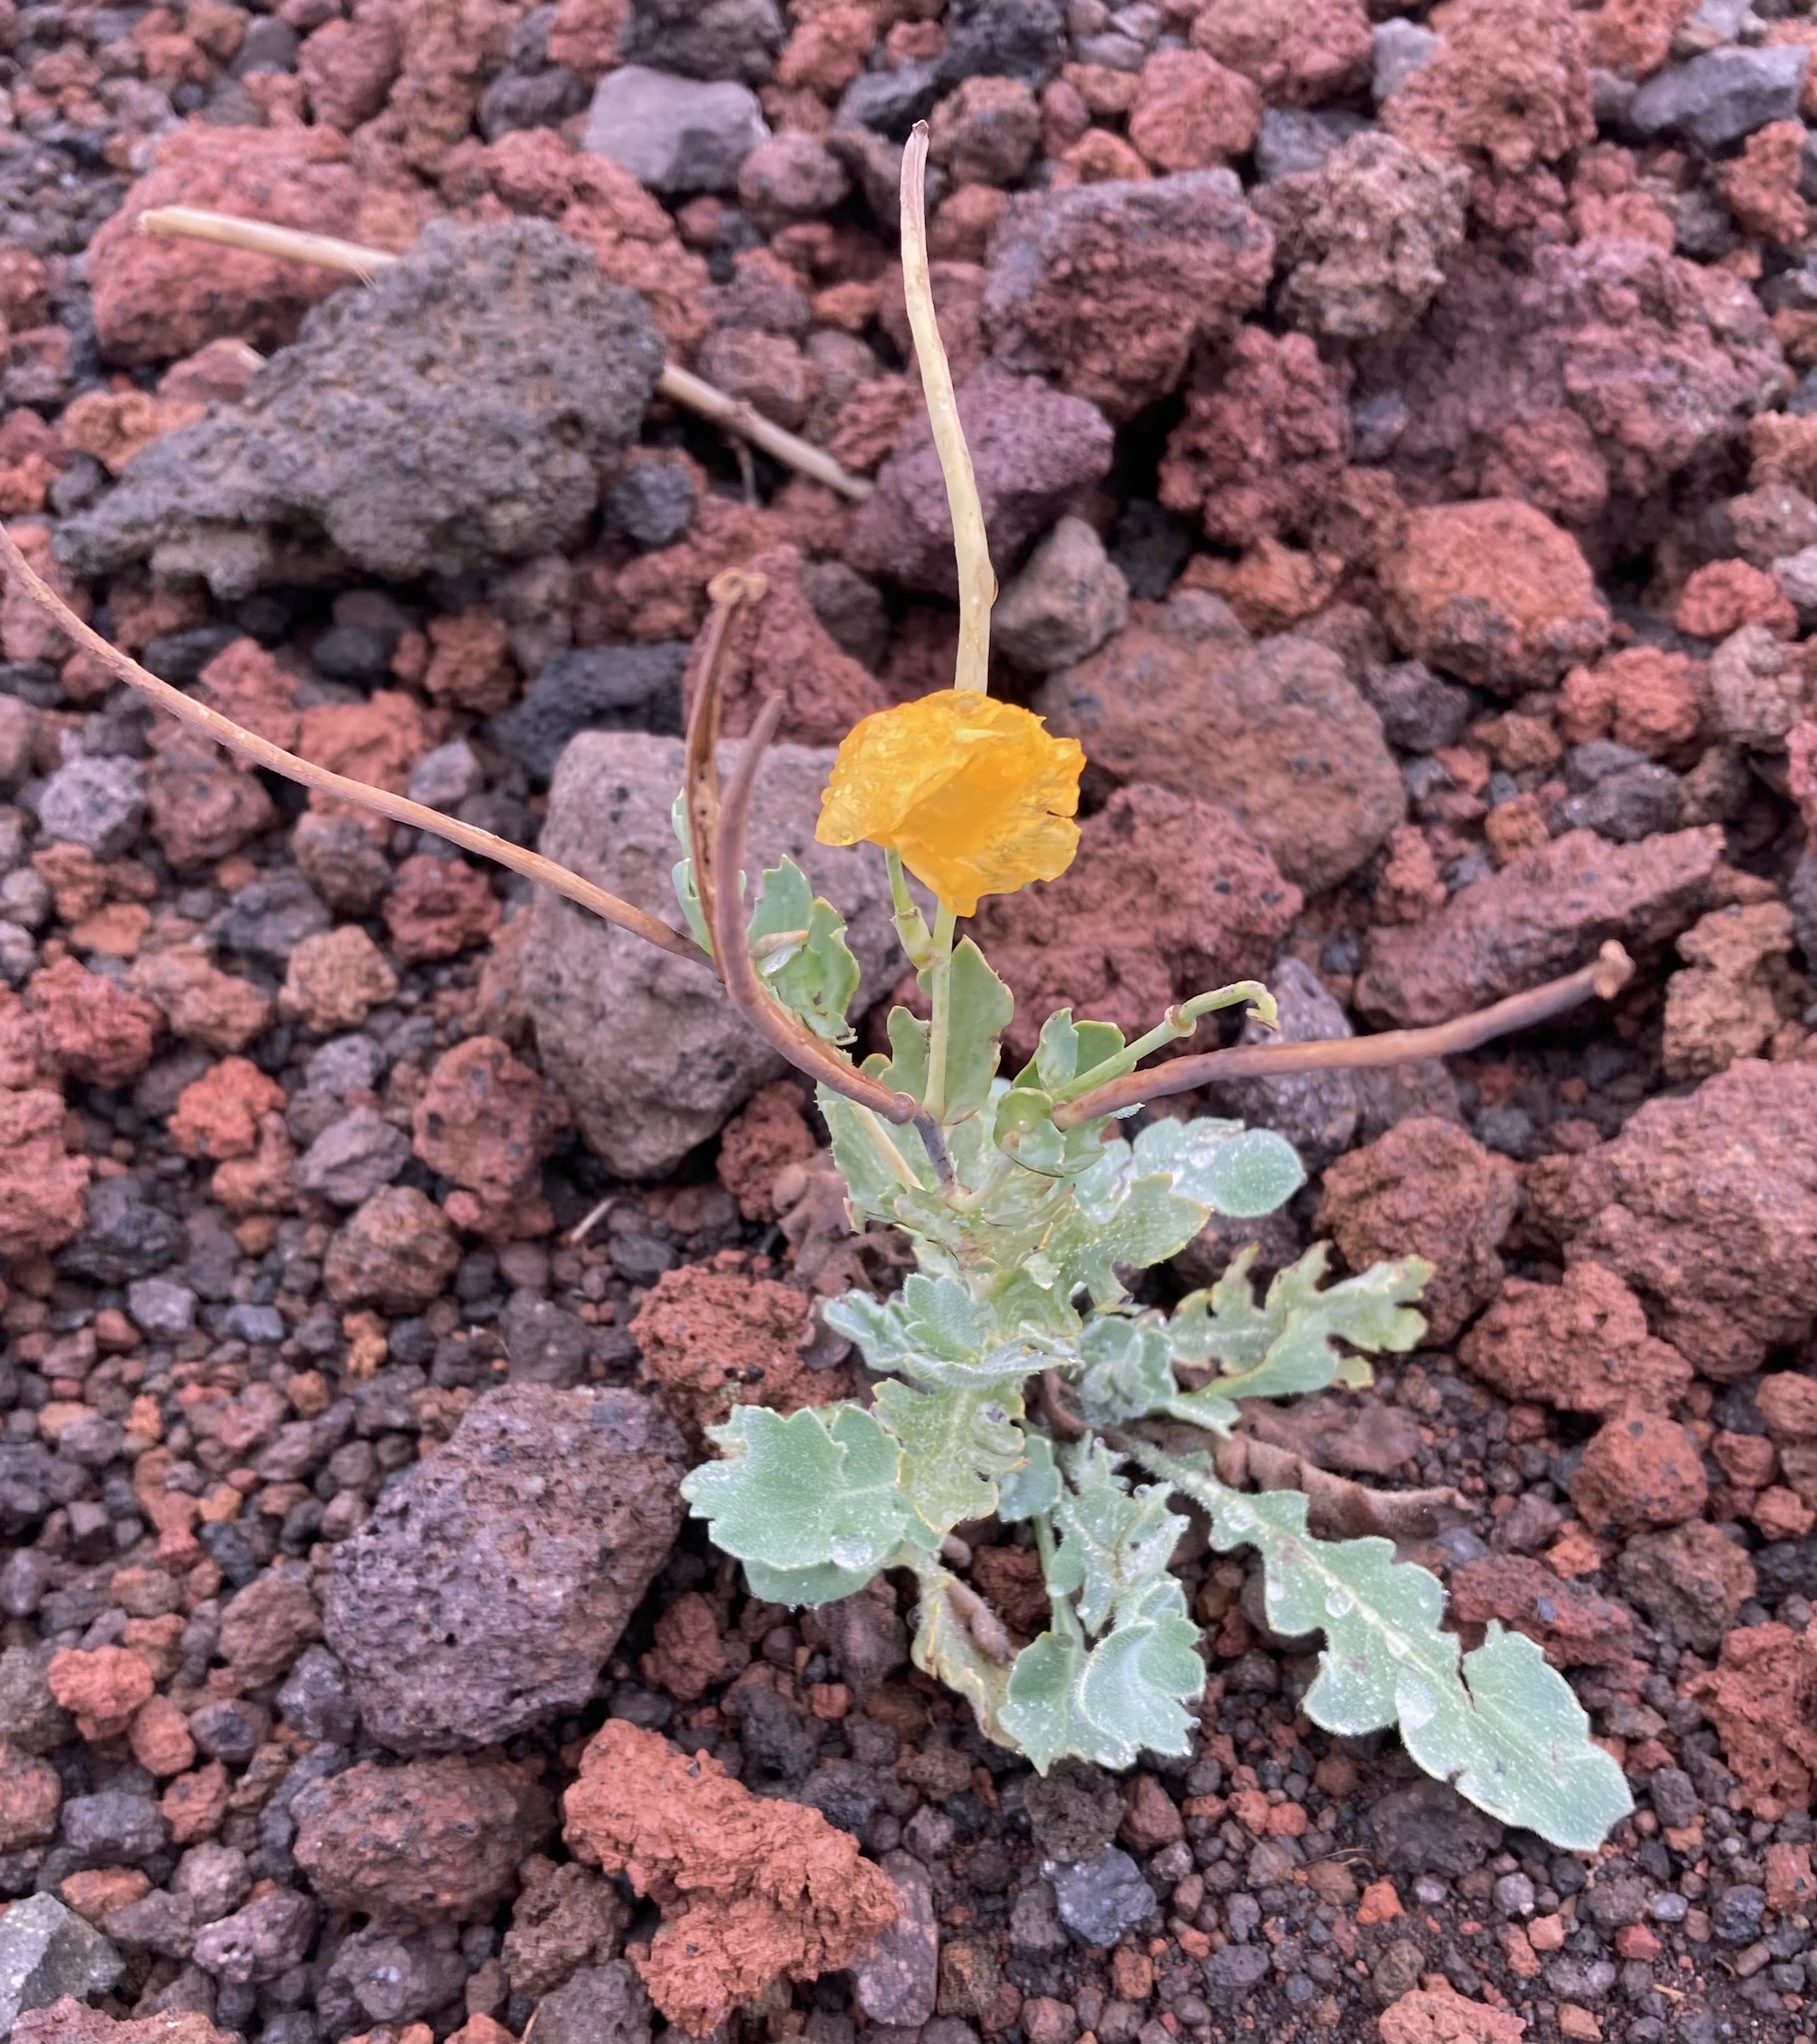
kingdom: Plantae
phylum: Tracheophyta
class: Magnoliopsida
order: Ranunculales
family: Papaveraceae
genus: Glaucium
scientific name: Glaucium flavum
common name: Yellow horned-poppy
